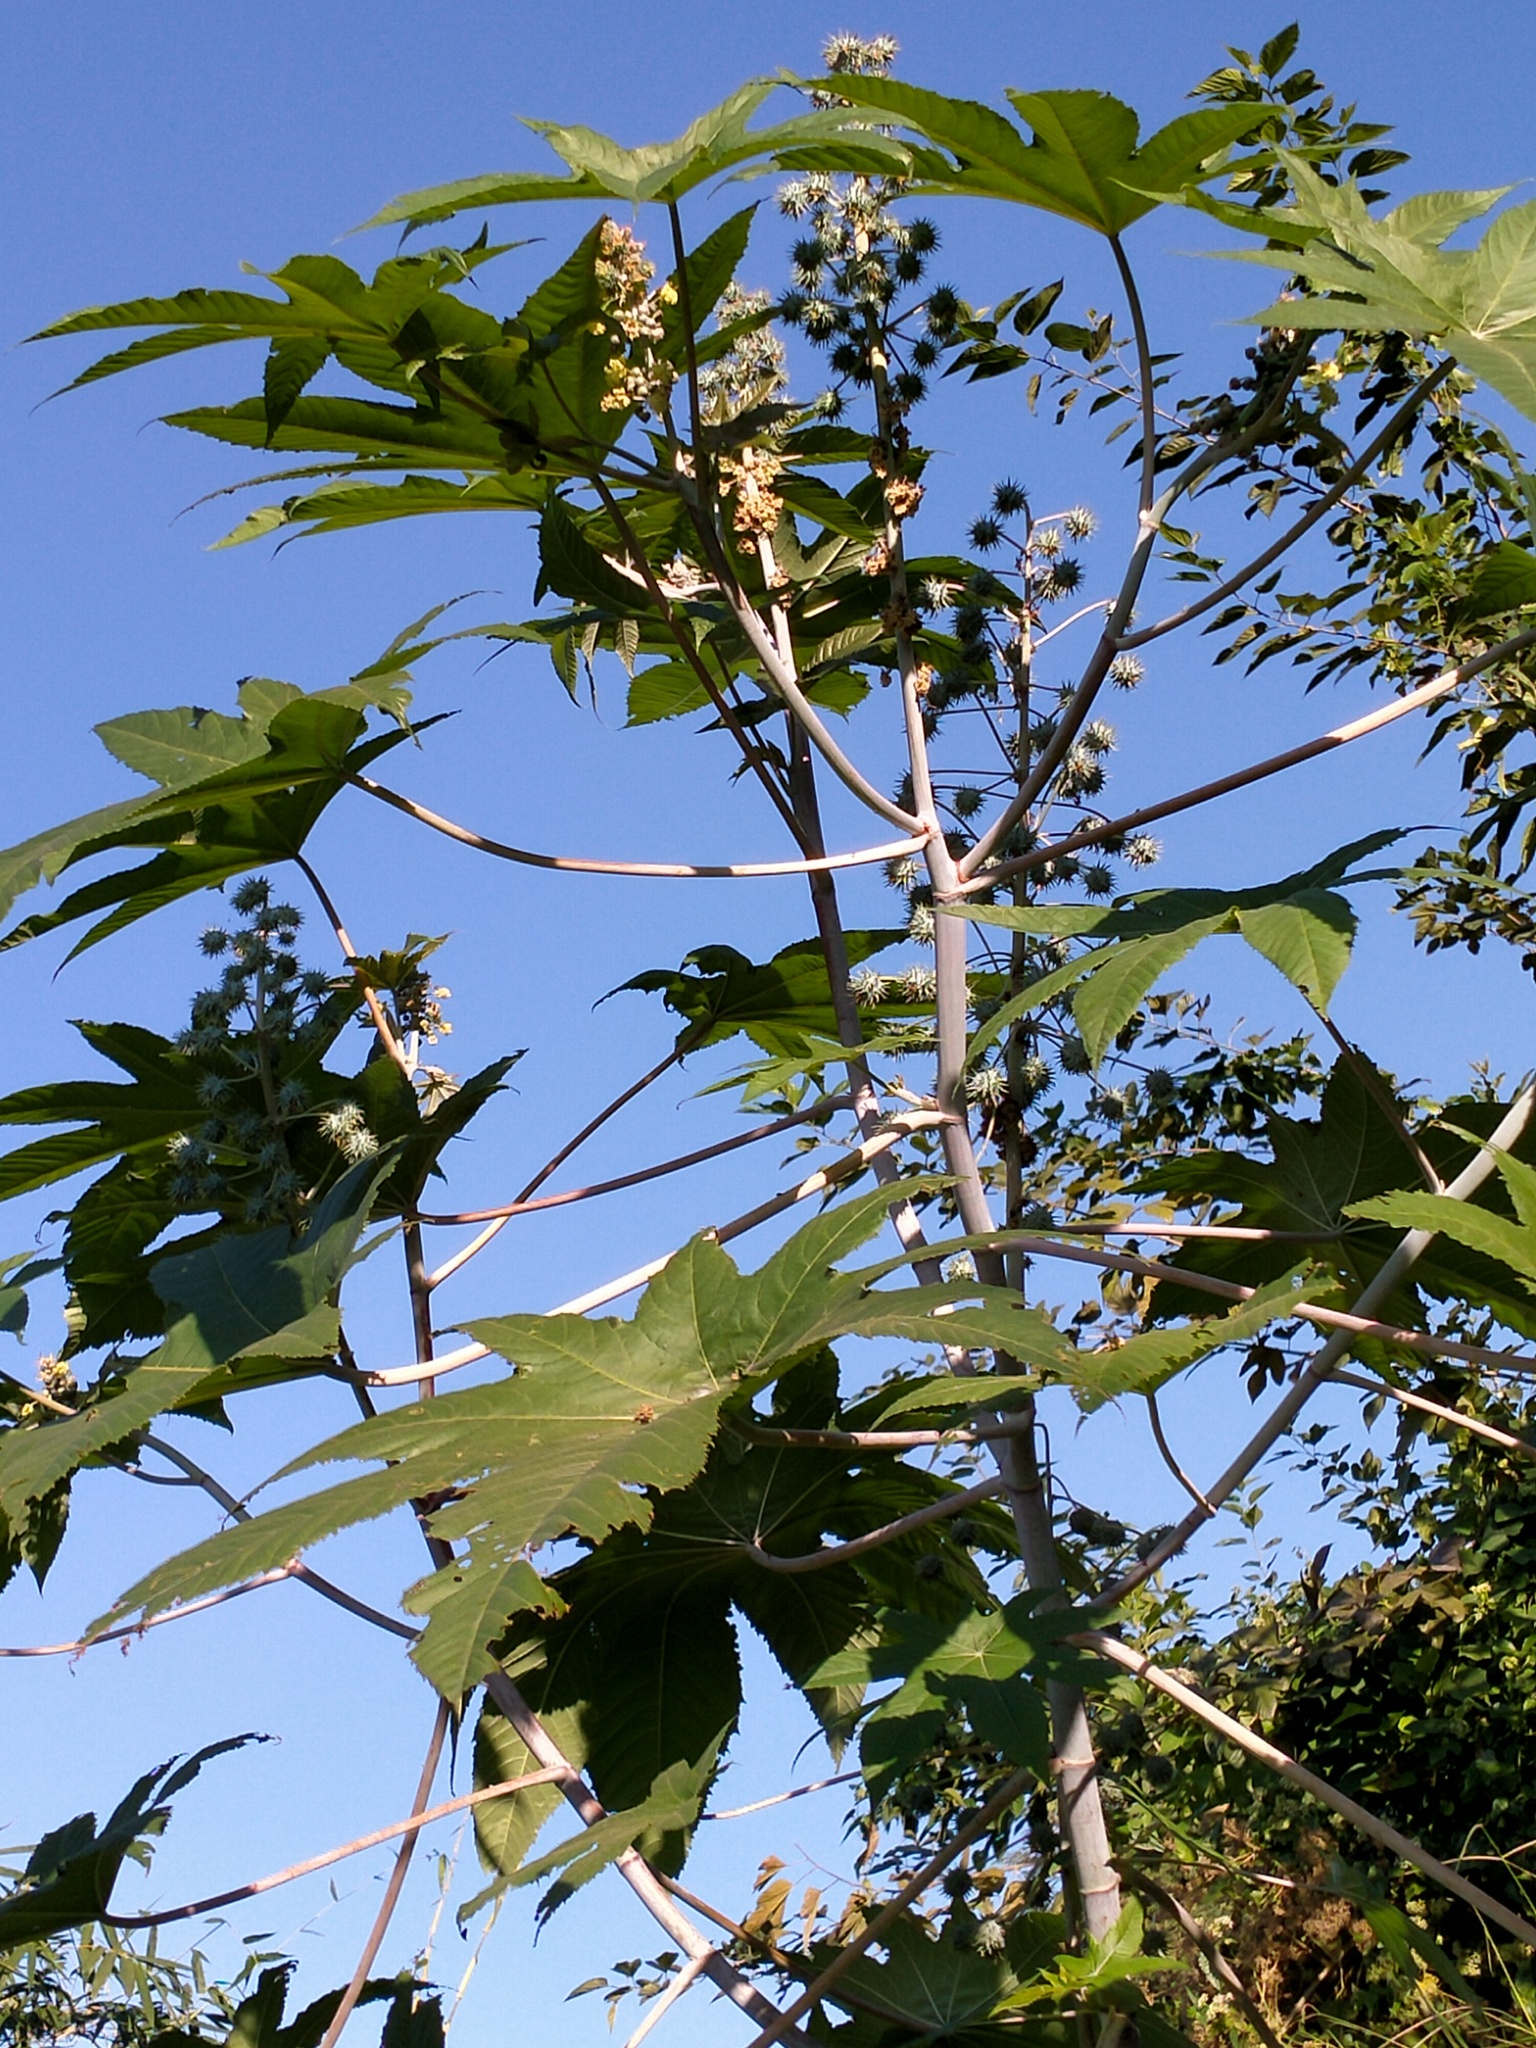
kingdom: Plantae
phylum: Tracheophyta
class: Magnoliopsida
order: Malpighiales
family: Euphorbiaceae
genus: Ricinus
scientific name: Ricinus communis
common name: Castor-oil-plant
